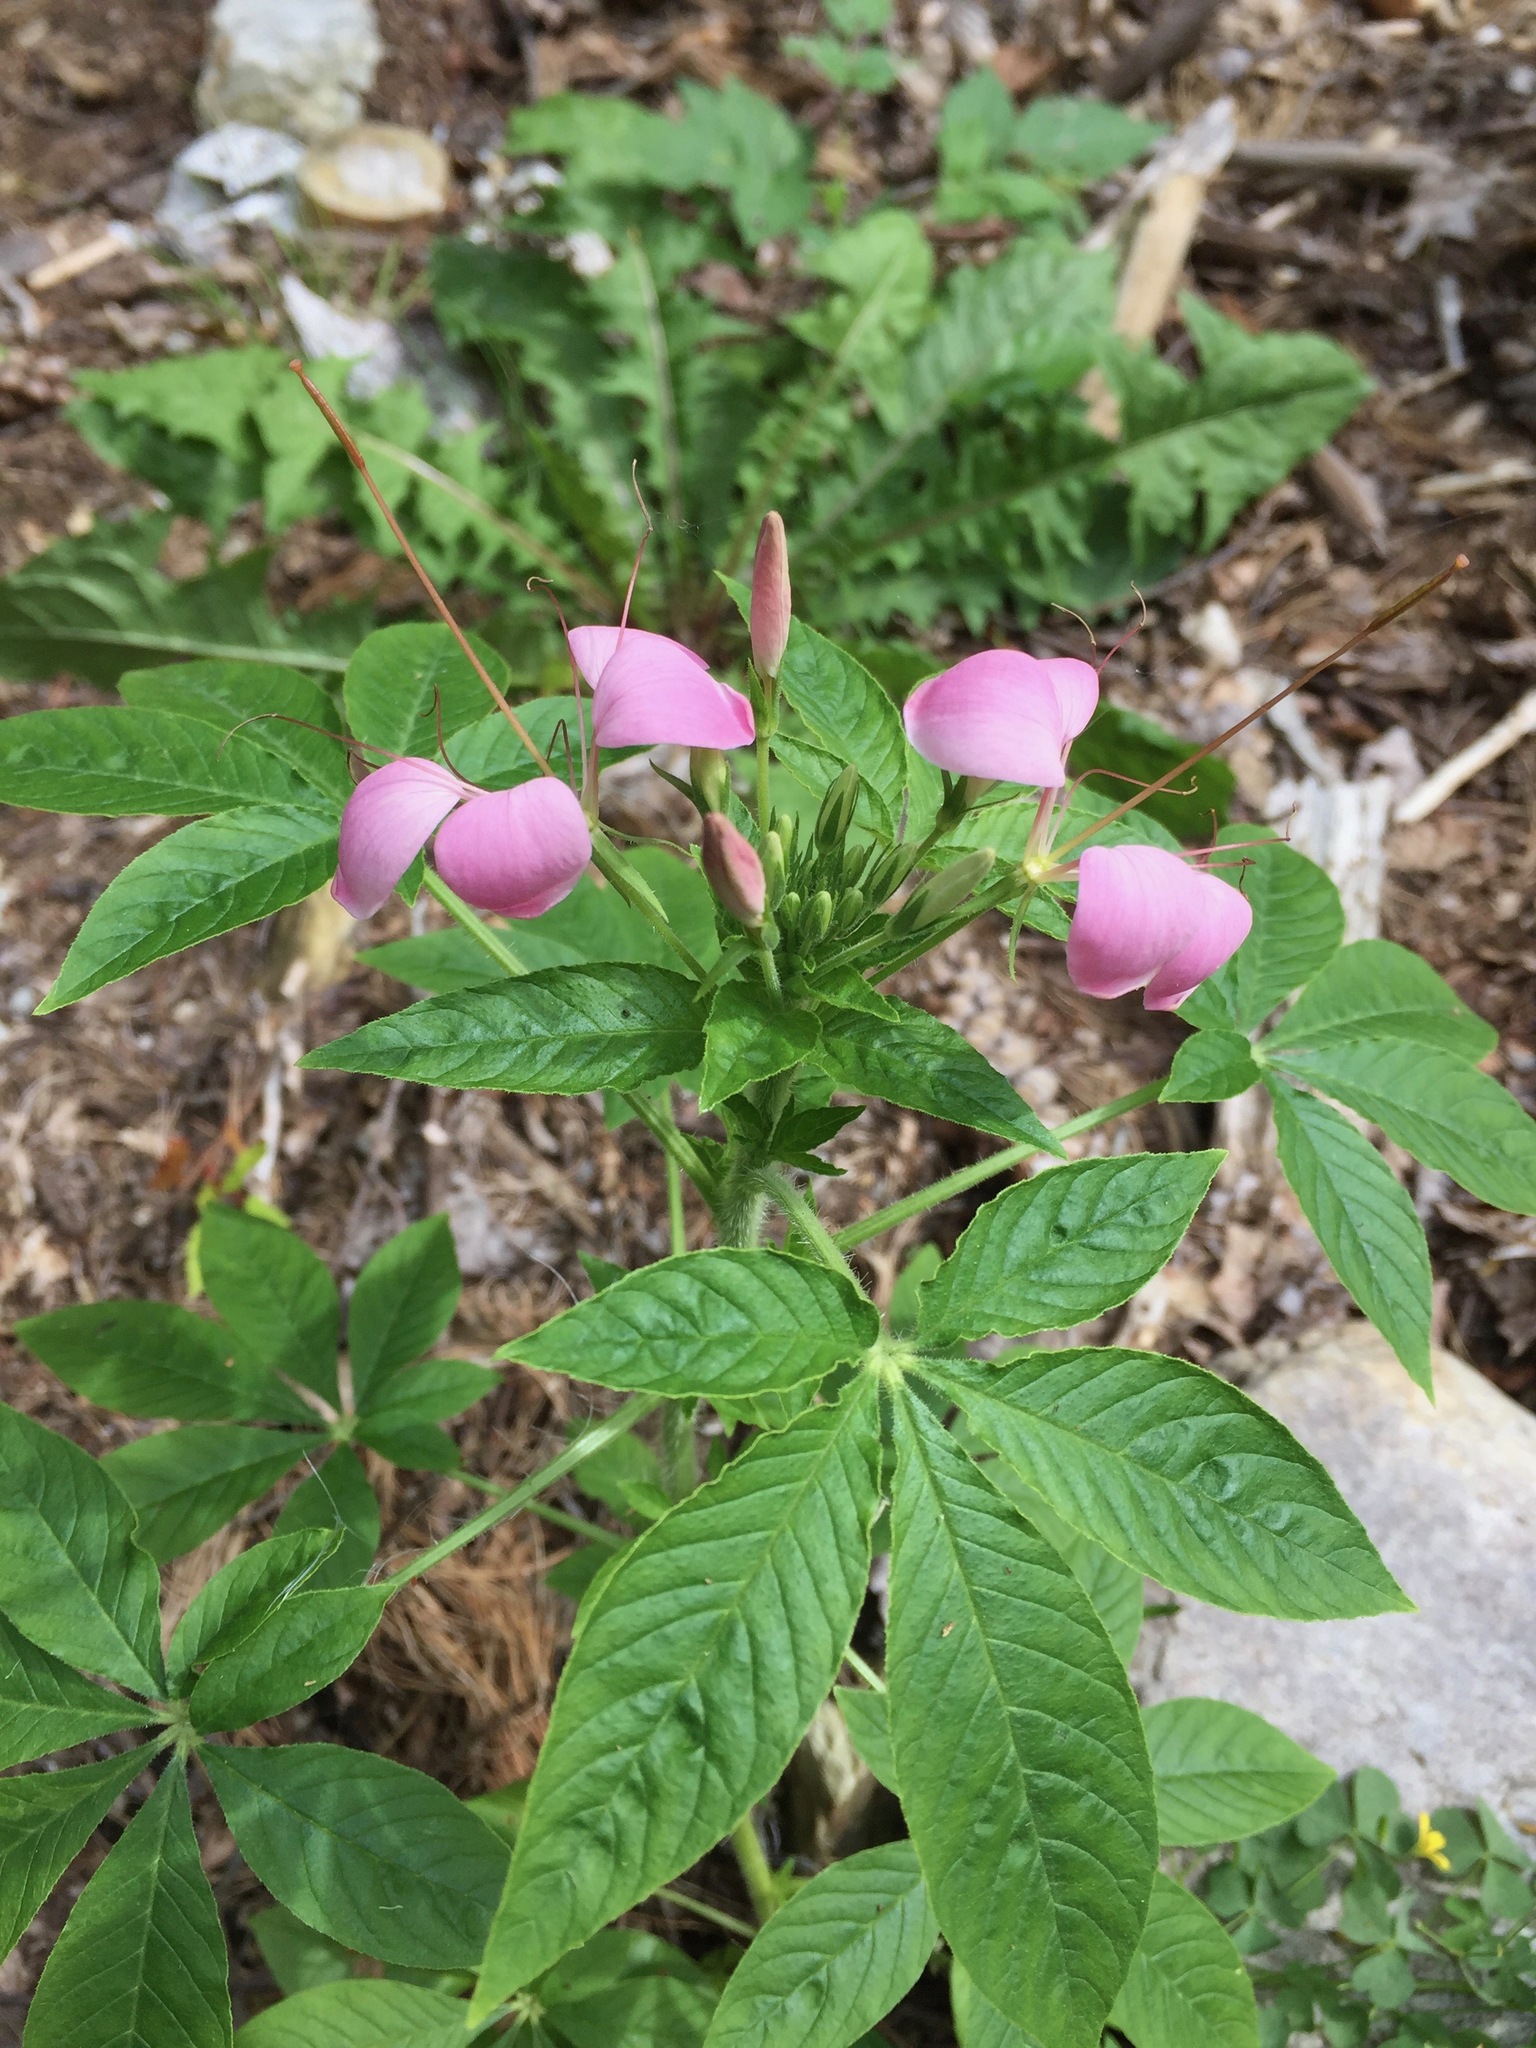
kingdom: Plantae
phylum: Tracheophyta
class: Magnoliopsida
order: Brassicales
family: Cleomaceae
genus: Tarenaya
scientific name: Tarenaya houtteana
